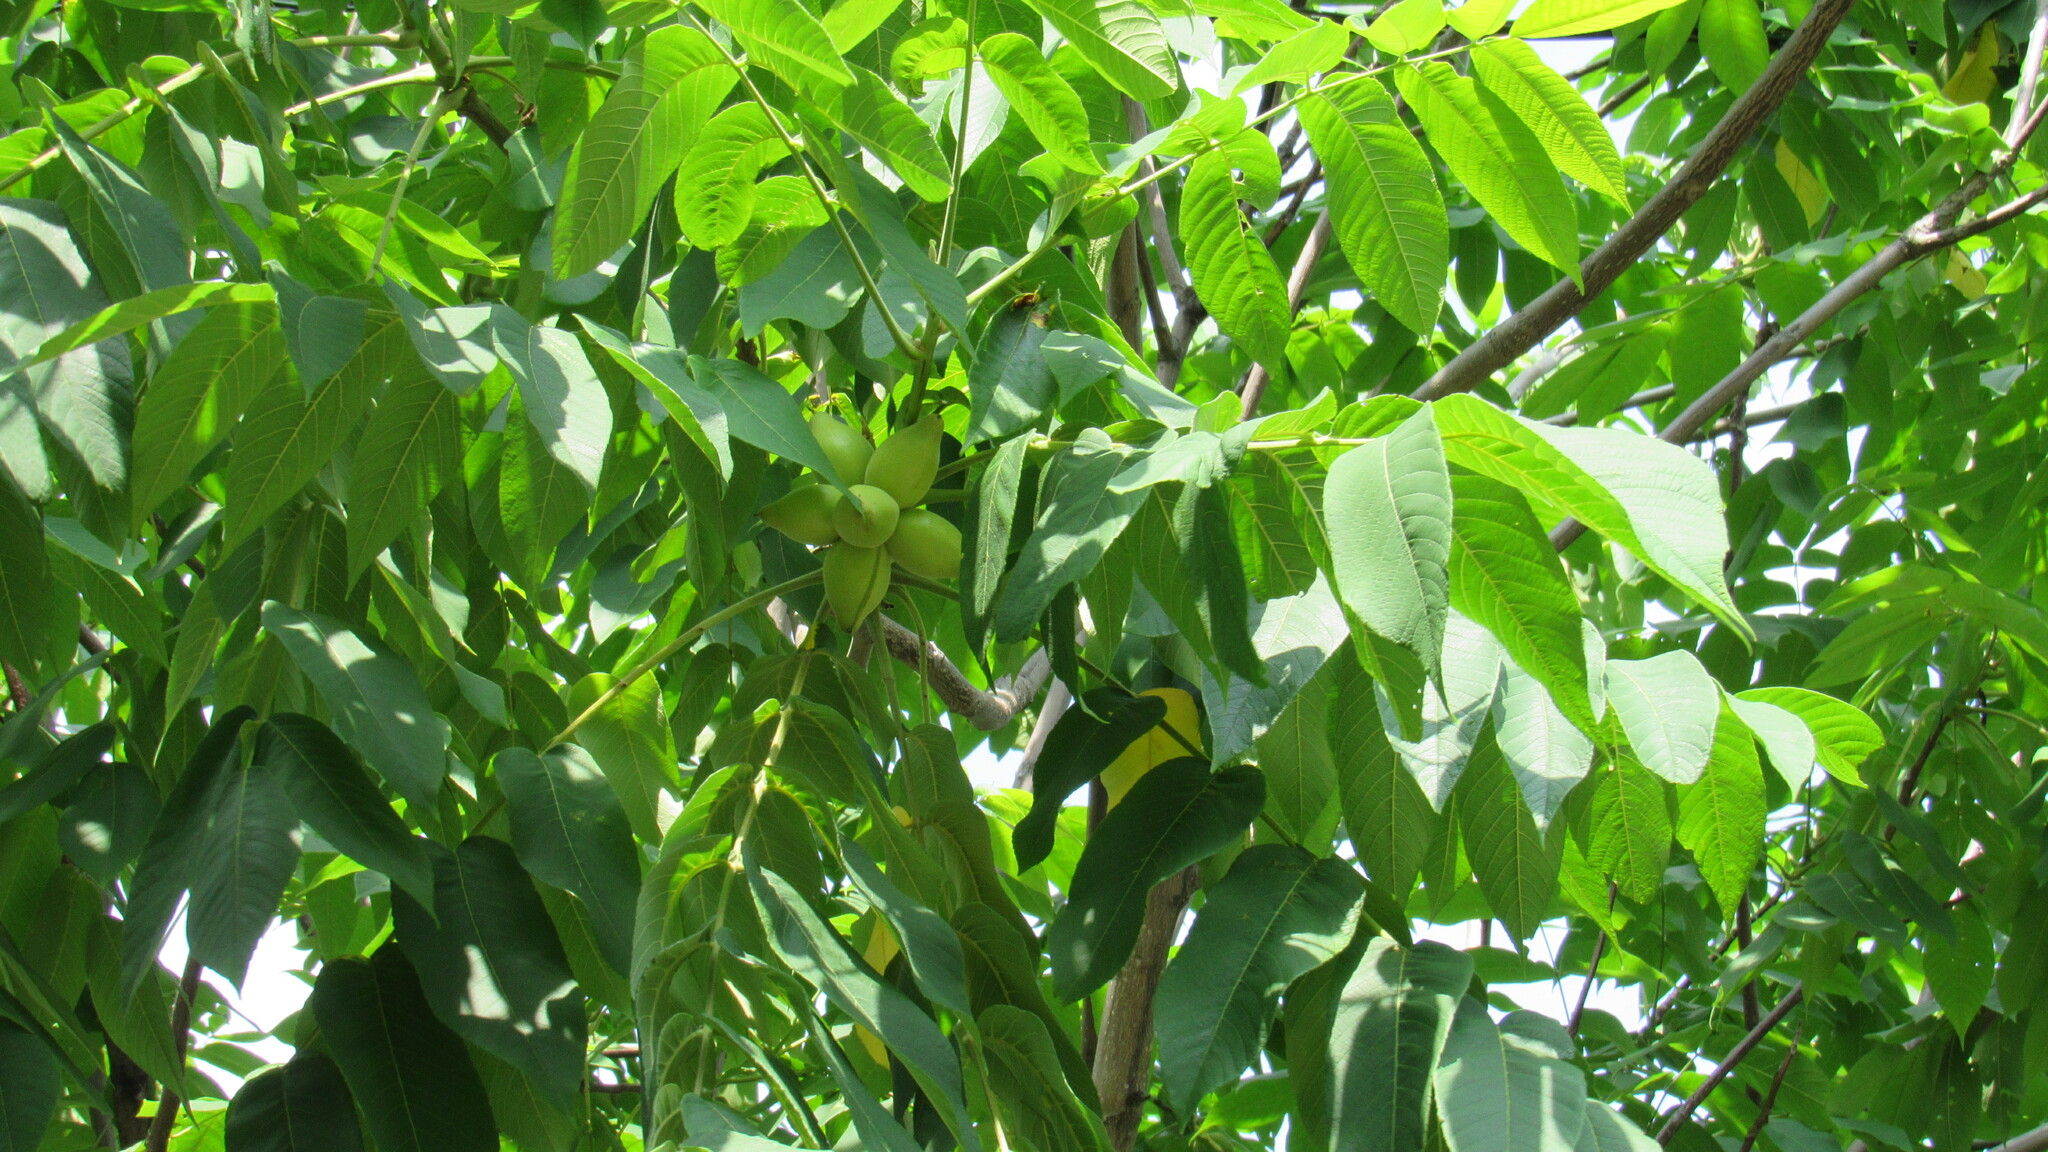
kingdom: Plantae
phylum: Tracheophyta
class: Magnoliopsida
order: Fagales
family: Juglandaceae
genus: Juglans
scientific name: Juglans mandshurica
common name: Manchurian walnut
